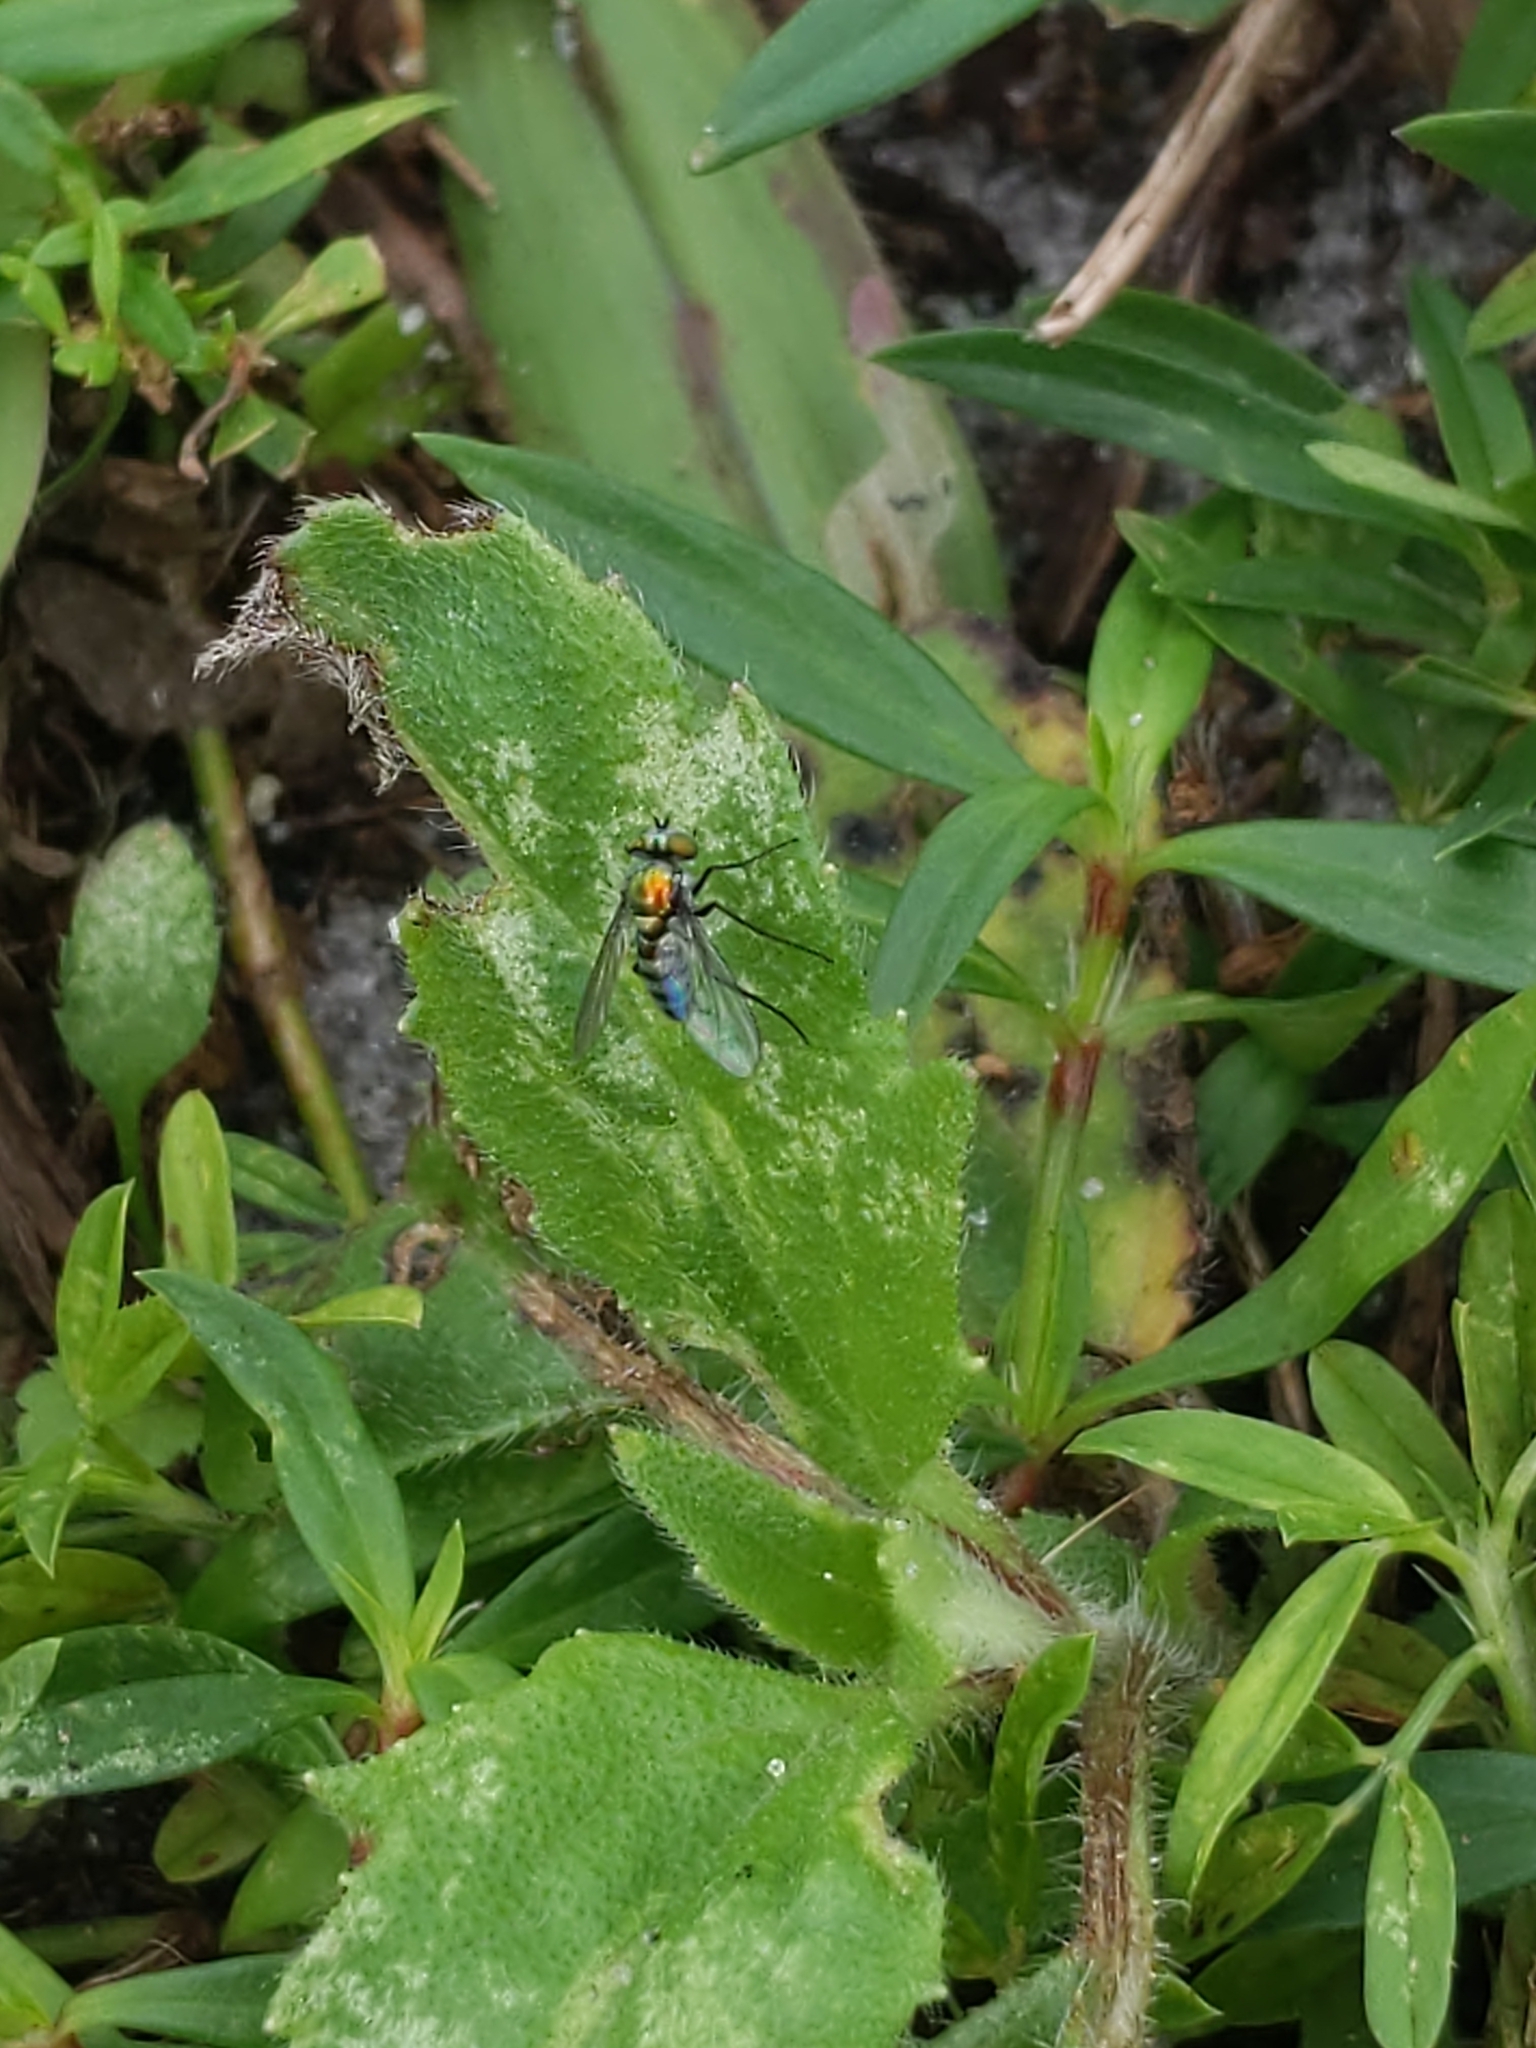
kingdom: Animalia
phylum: Arthropoda
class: Insecta
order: Diptera
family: Dolichopodidae
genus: Condylostylus
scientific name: Condylostylus mundus
